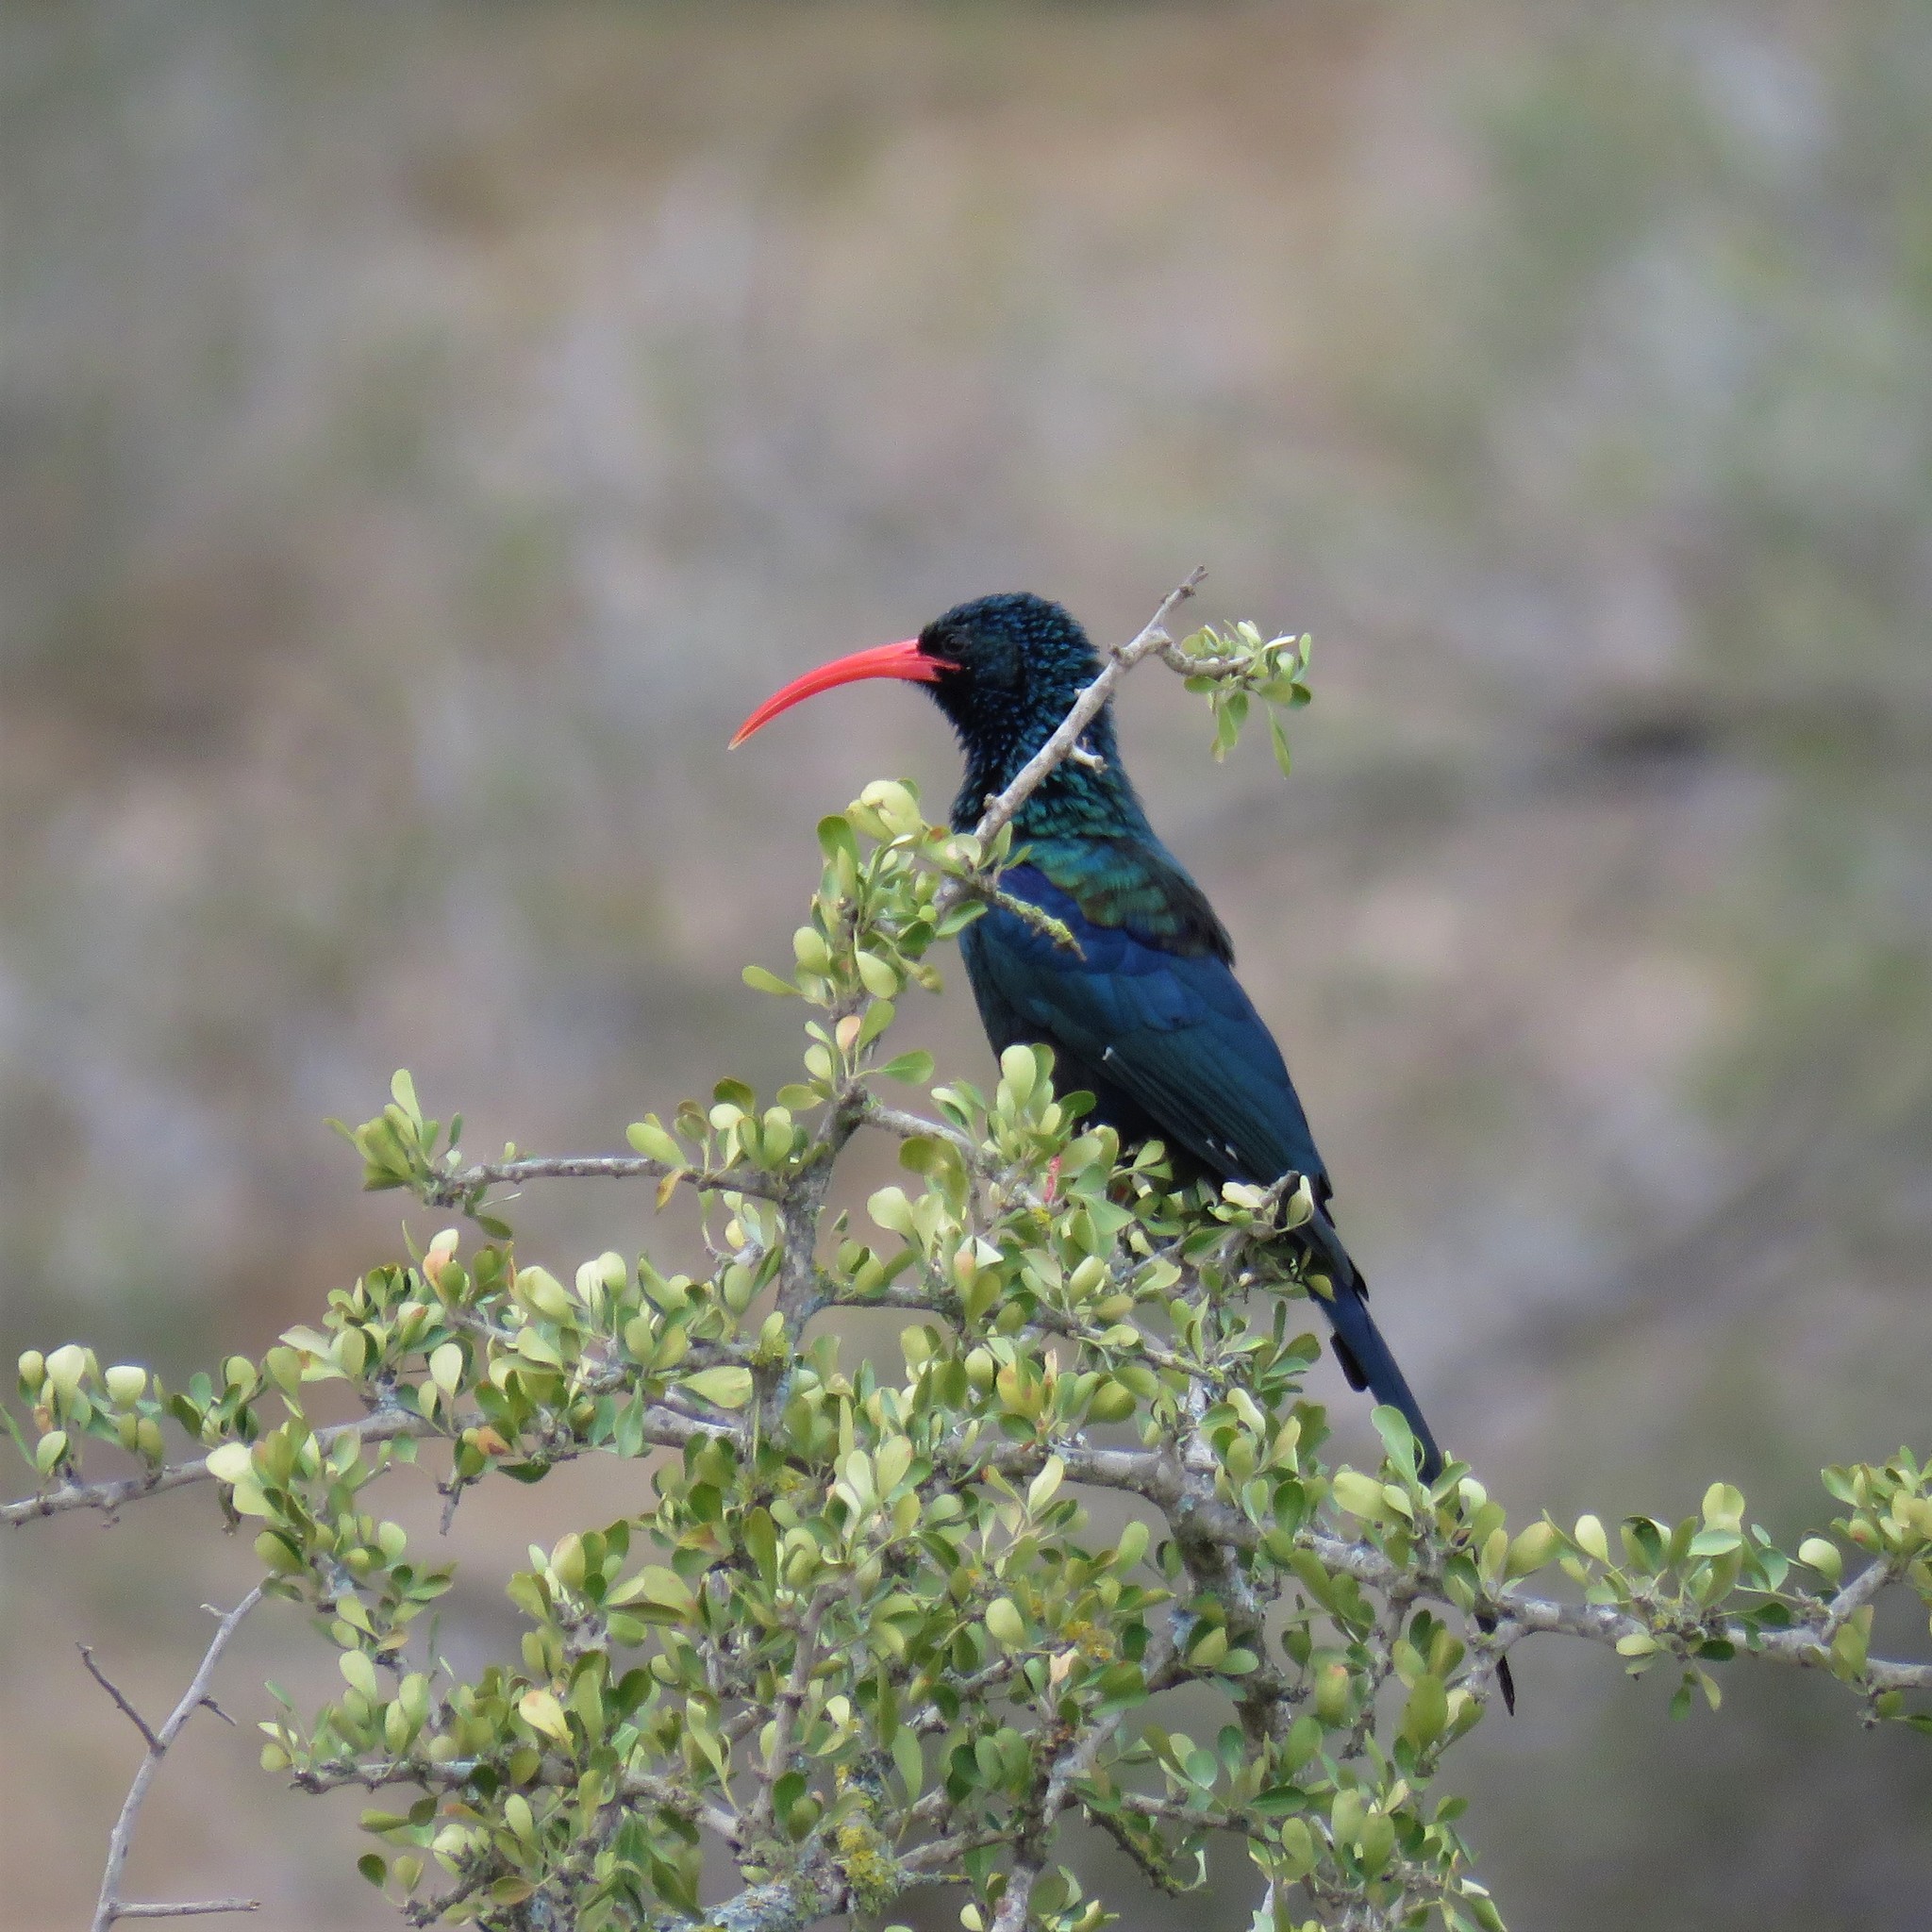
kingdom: Animalia
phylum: Chordata
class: Aves
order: Bucerotiformes
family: Phoeniculidae
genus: Phoeniculus
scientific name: Phoeniculus purpureus
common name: Green woodhoopoe
